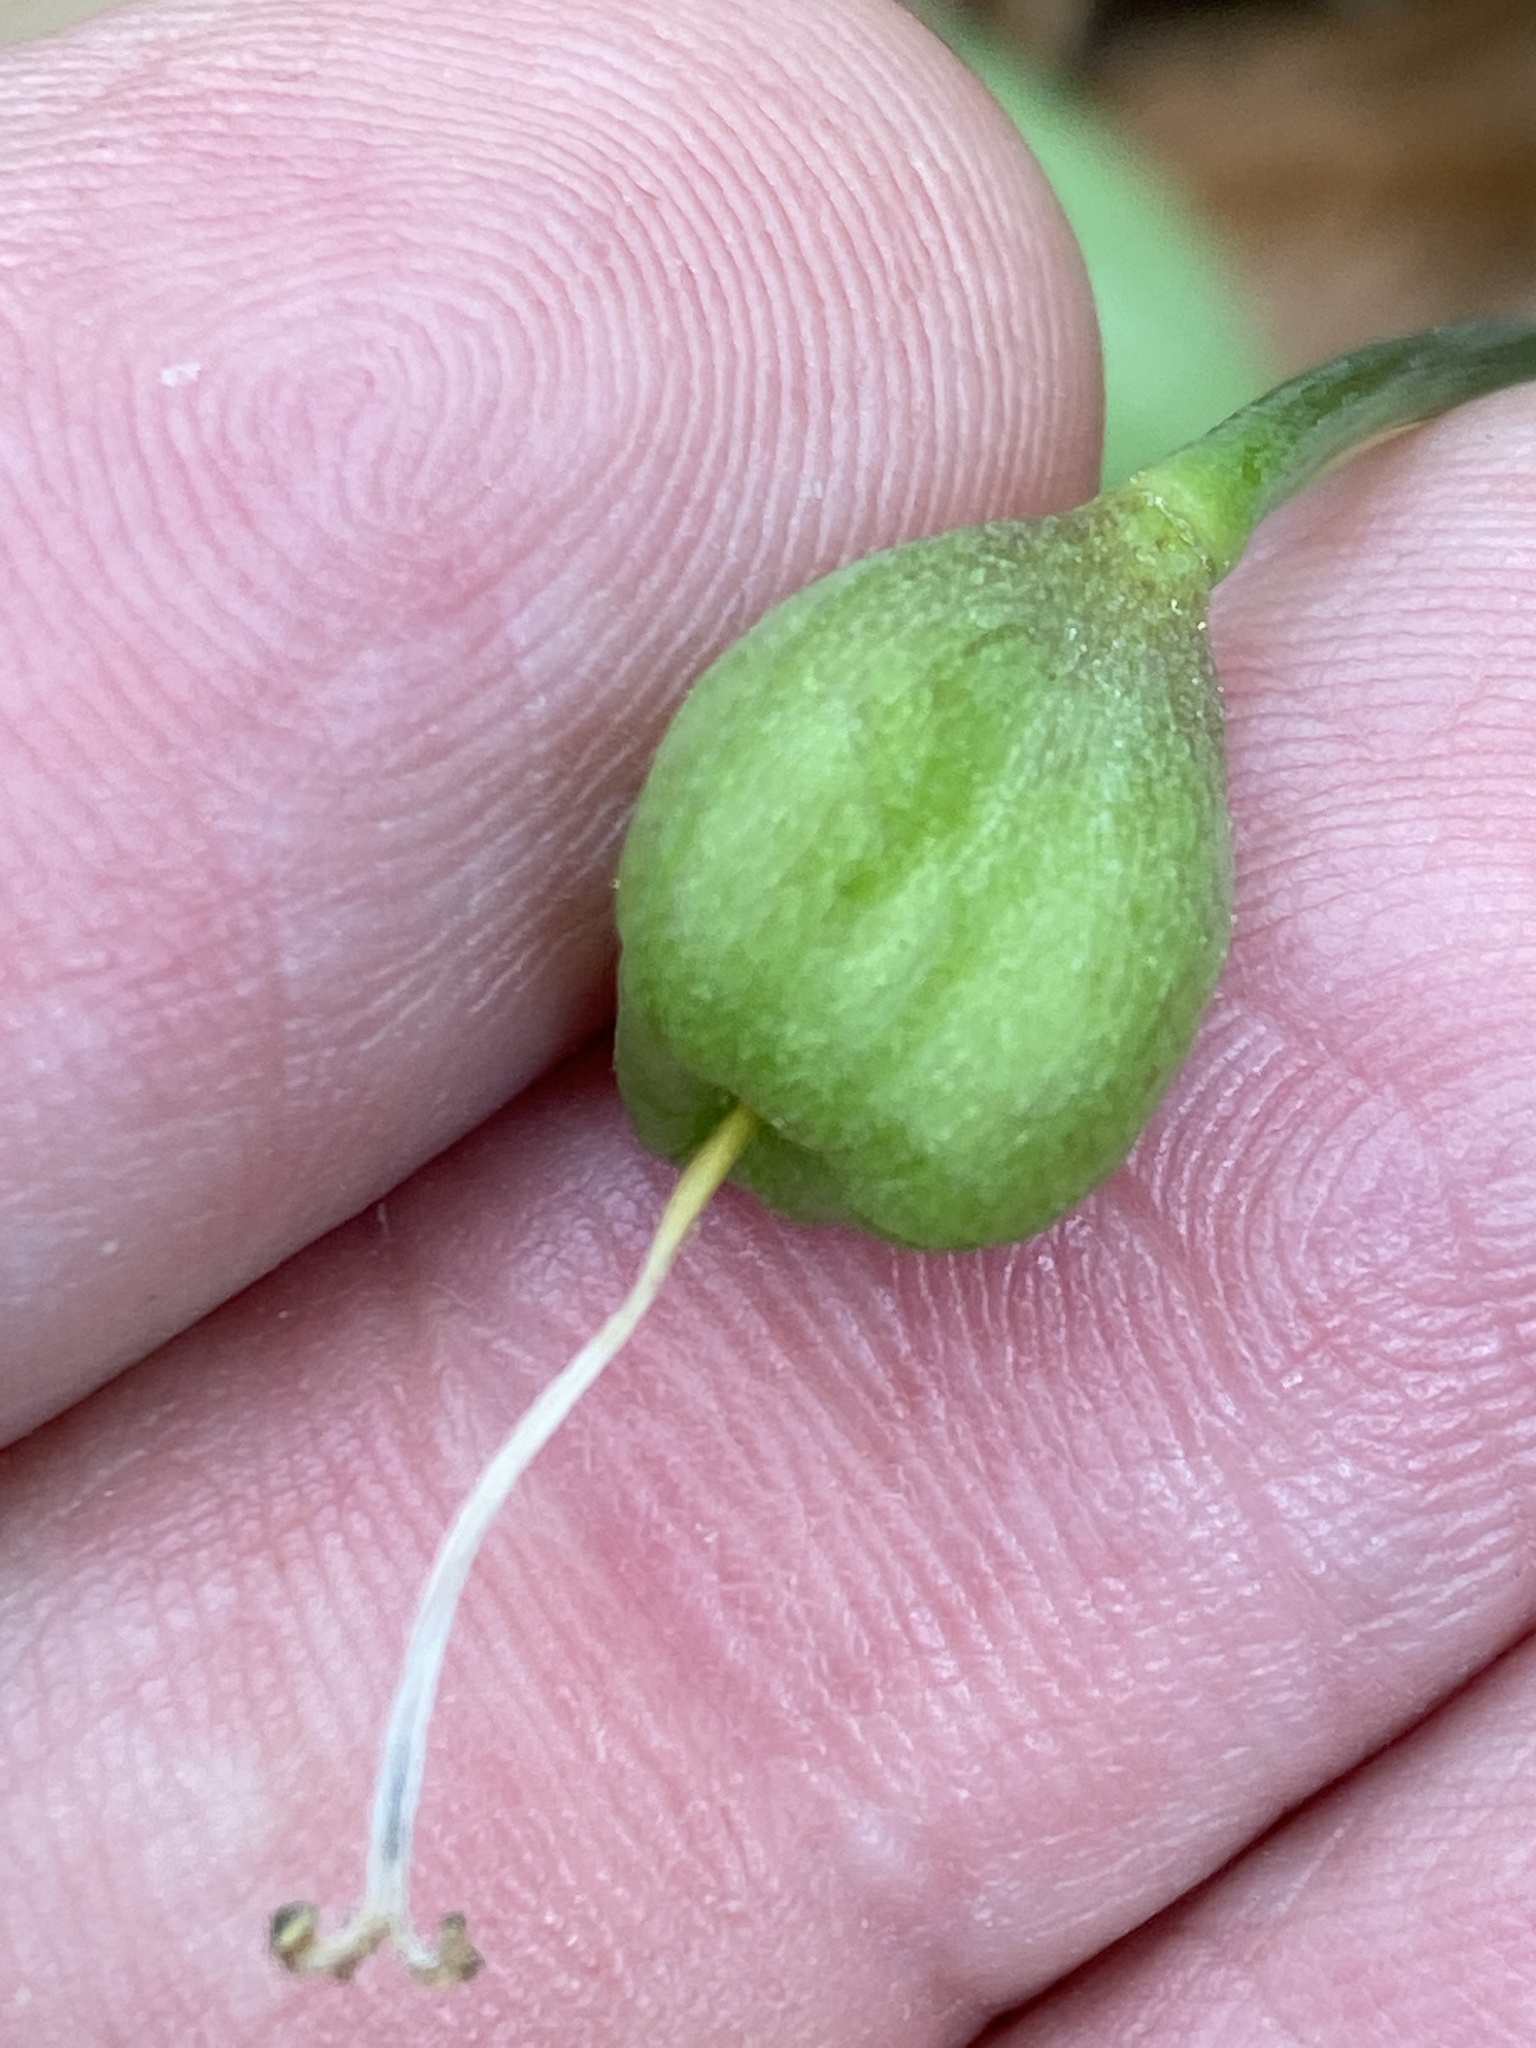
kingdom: Plantae
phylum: Tracheophyta
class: Liliopsida
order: Liliales
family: Liliaceae
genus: Erythronium
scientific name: Erythronium umbilicatum
